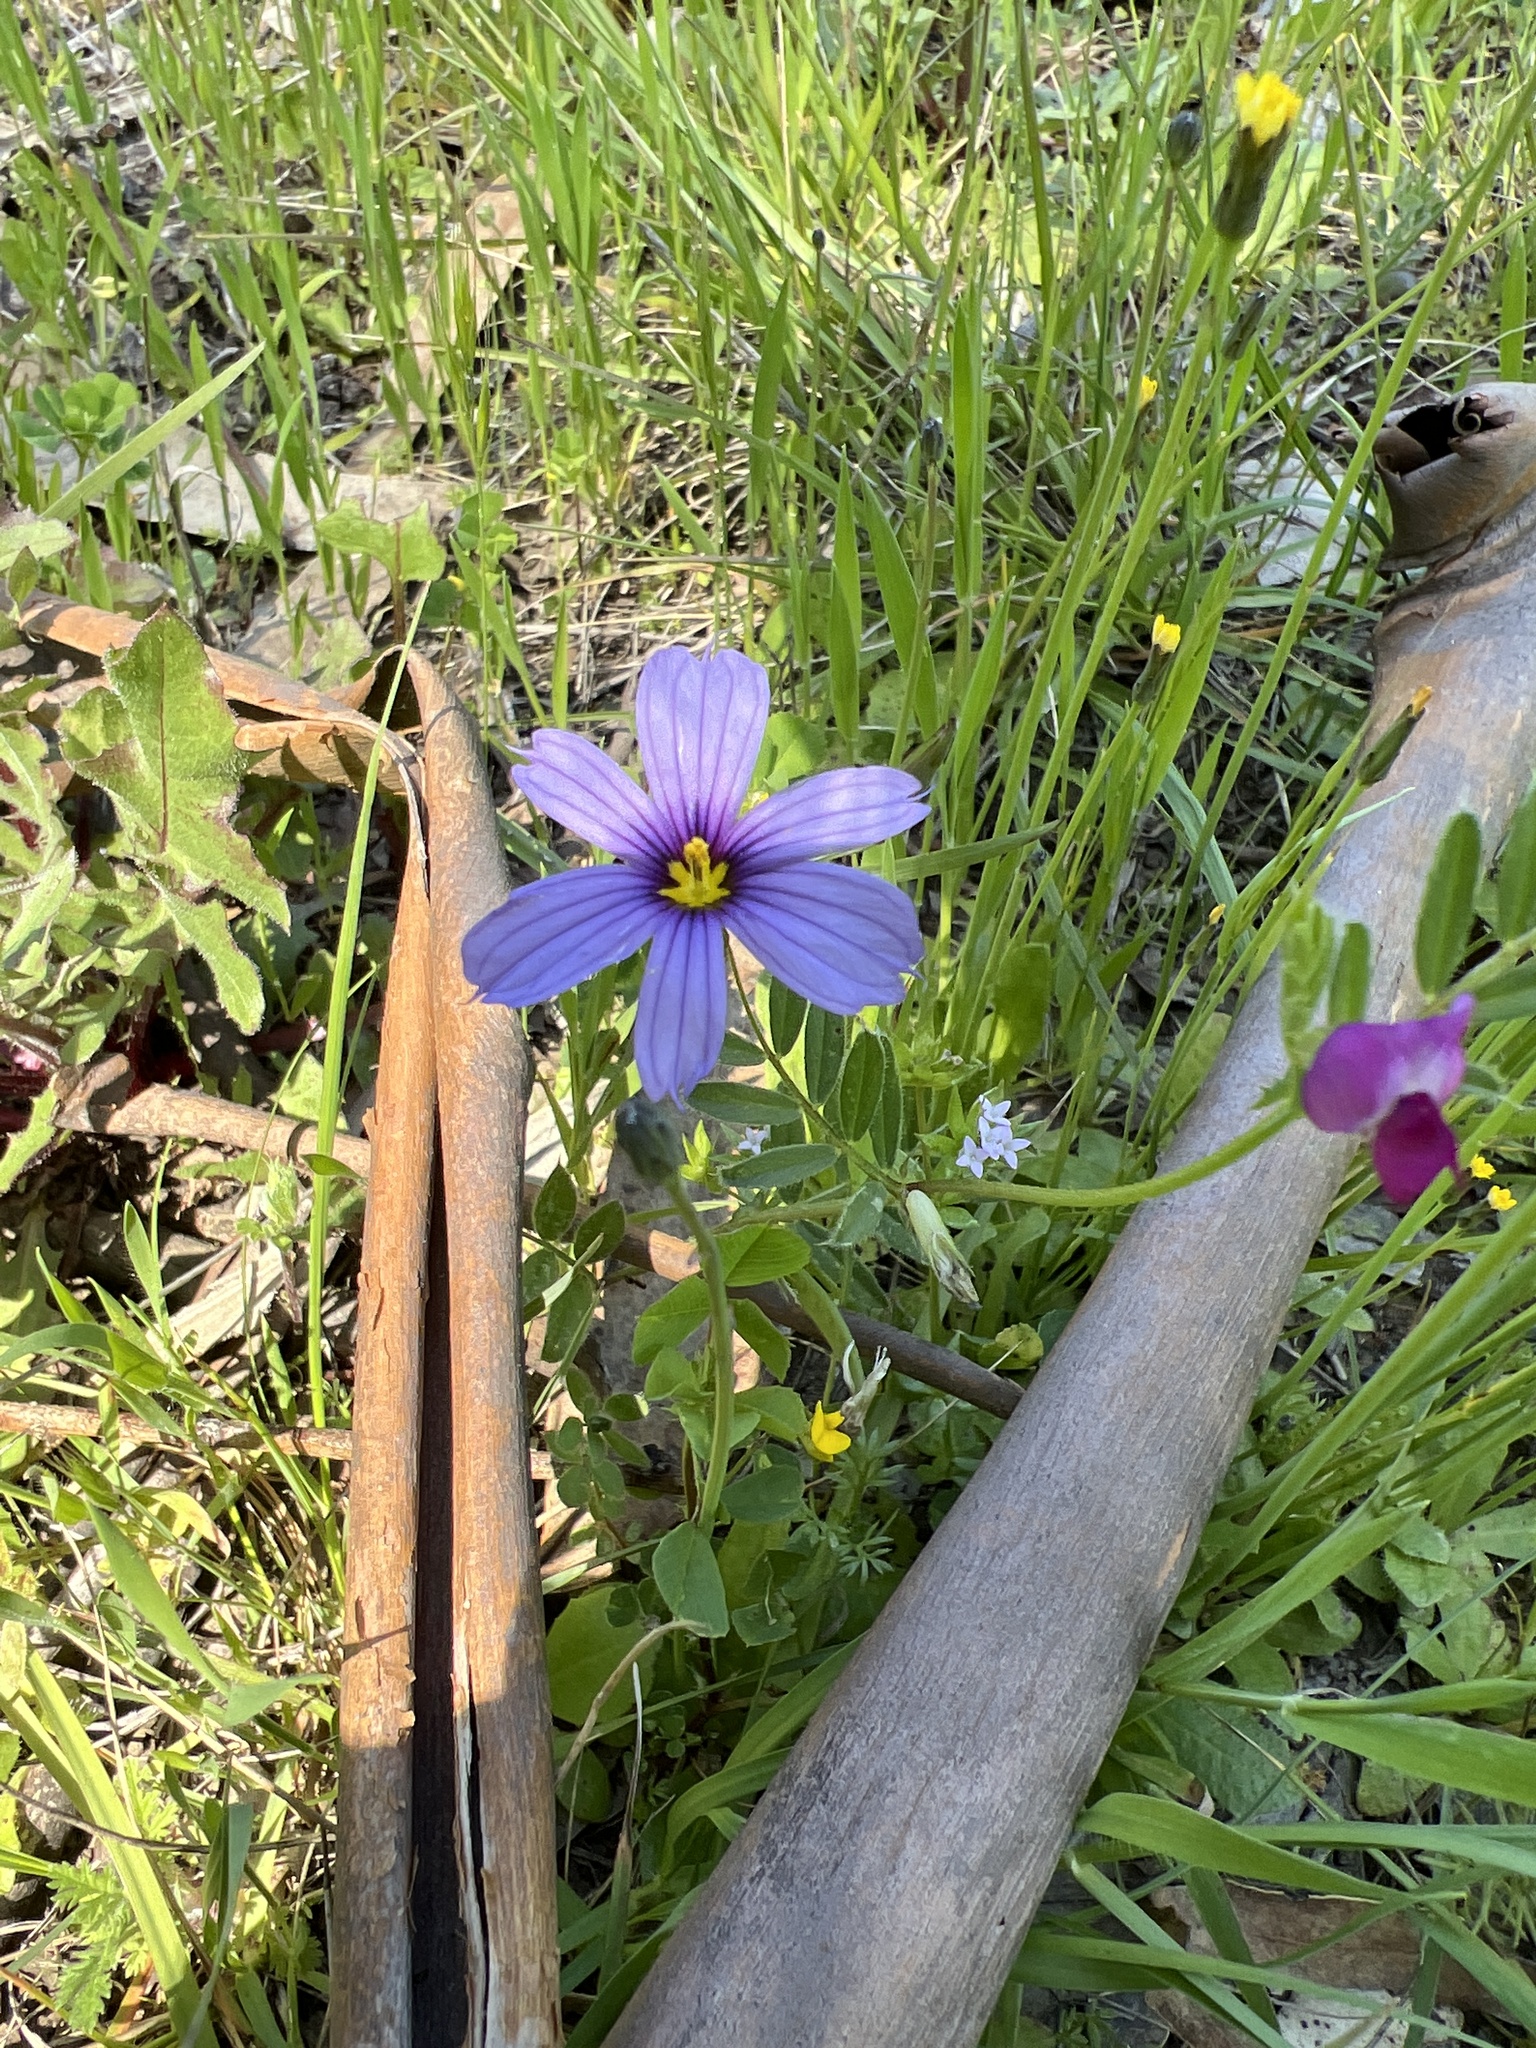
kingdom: Plantae
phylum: Tracheophyta
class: Liliopsida
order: Asparagales
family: Iridaceae
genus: Sisyrinchium
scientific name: Sisyrinchium bellum
